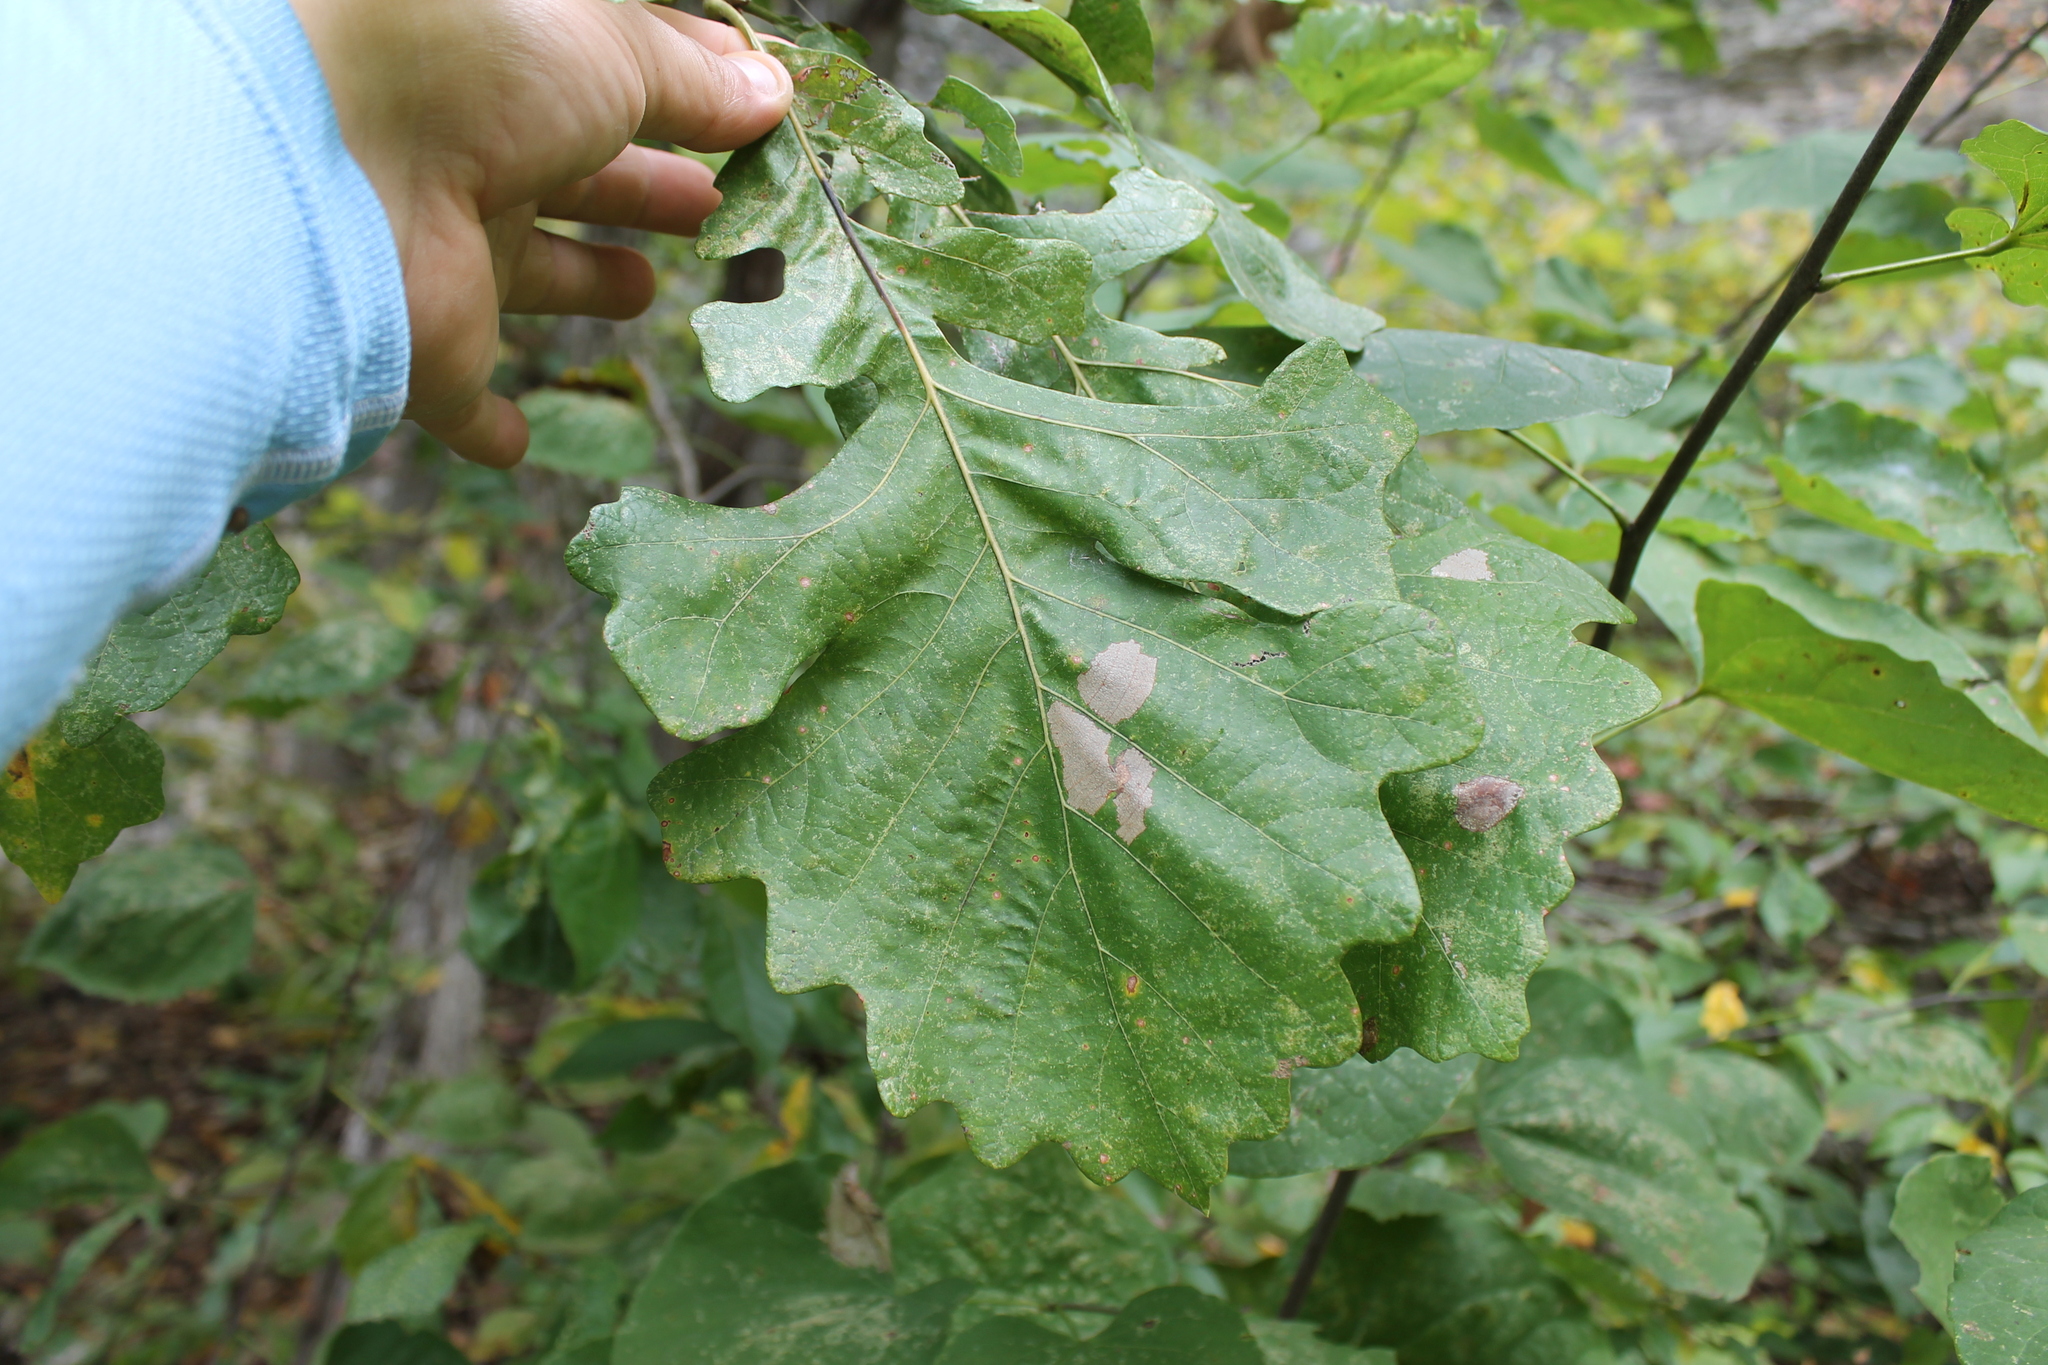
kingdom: Plantae
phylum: Tracheophyta
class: Magnoliopsida
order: Fagales
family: Fagaceae
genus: Quercus
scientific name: Quercus macrocarpa
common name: Bur oak
